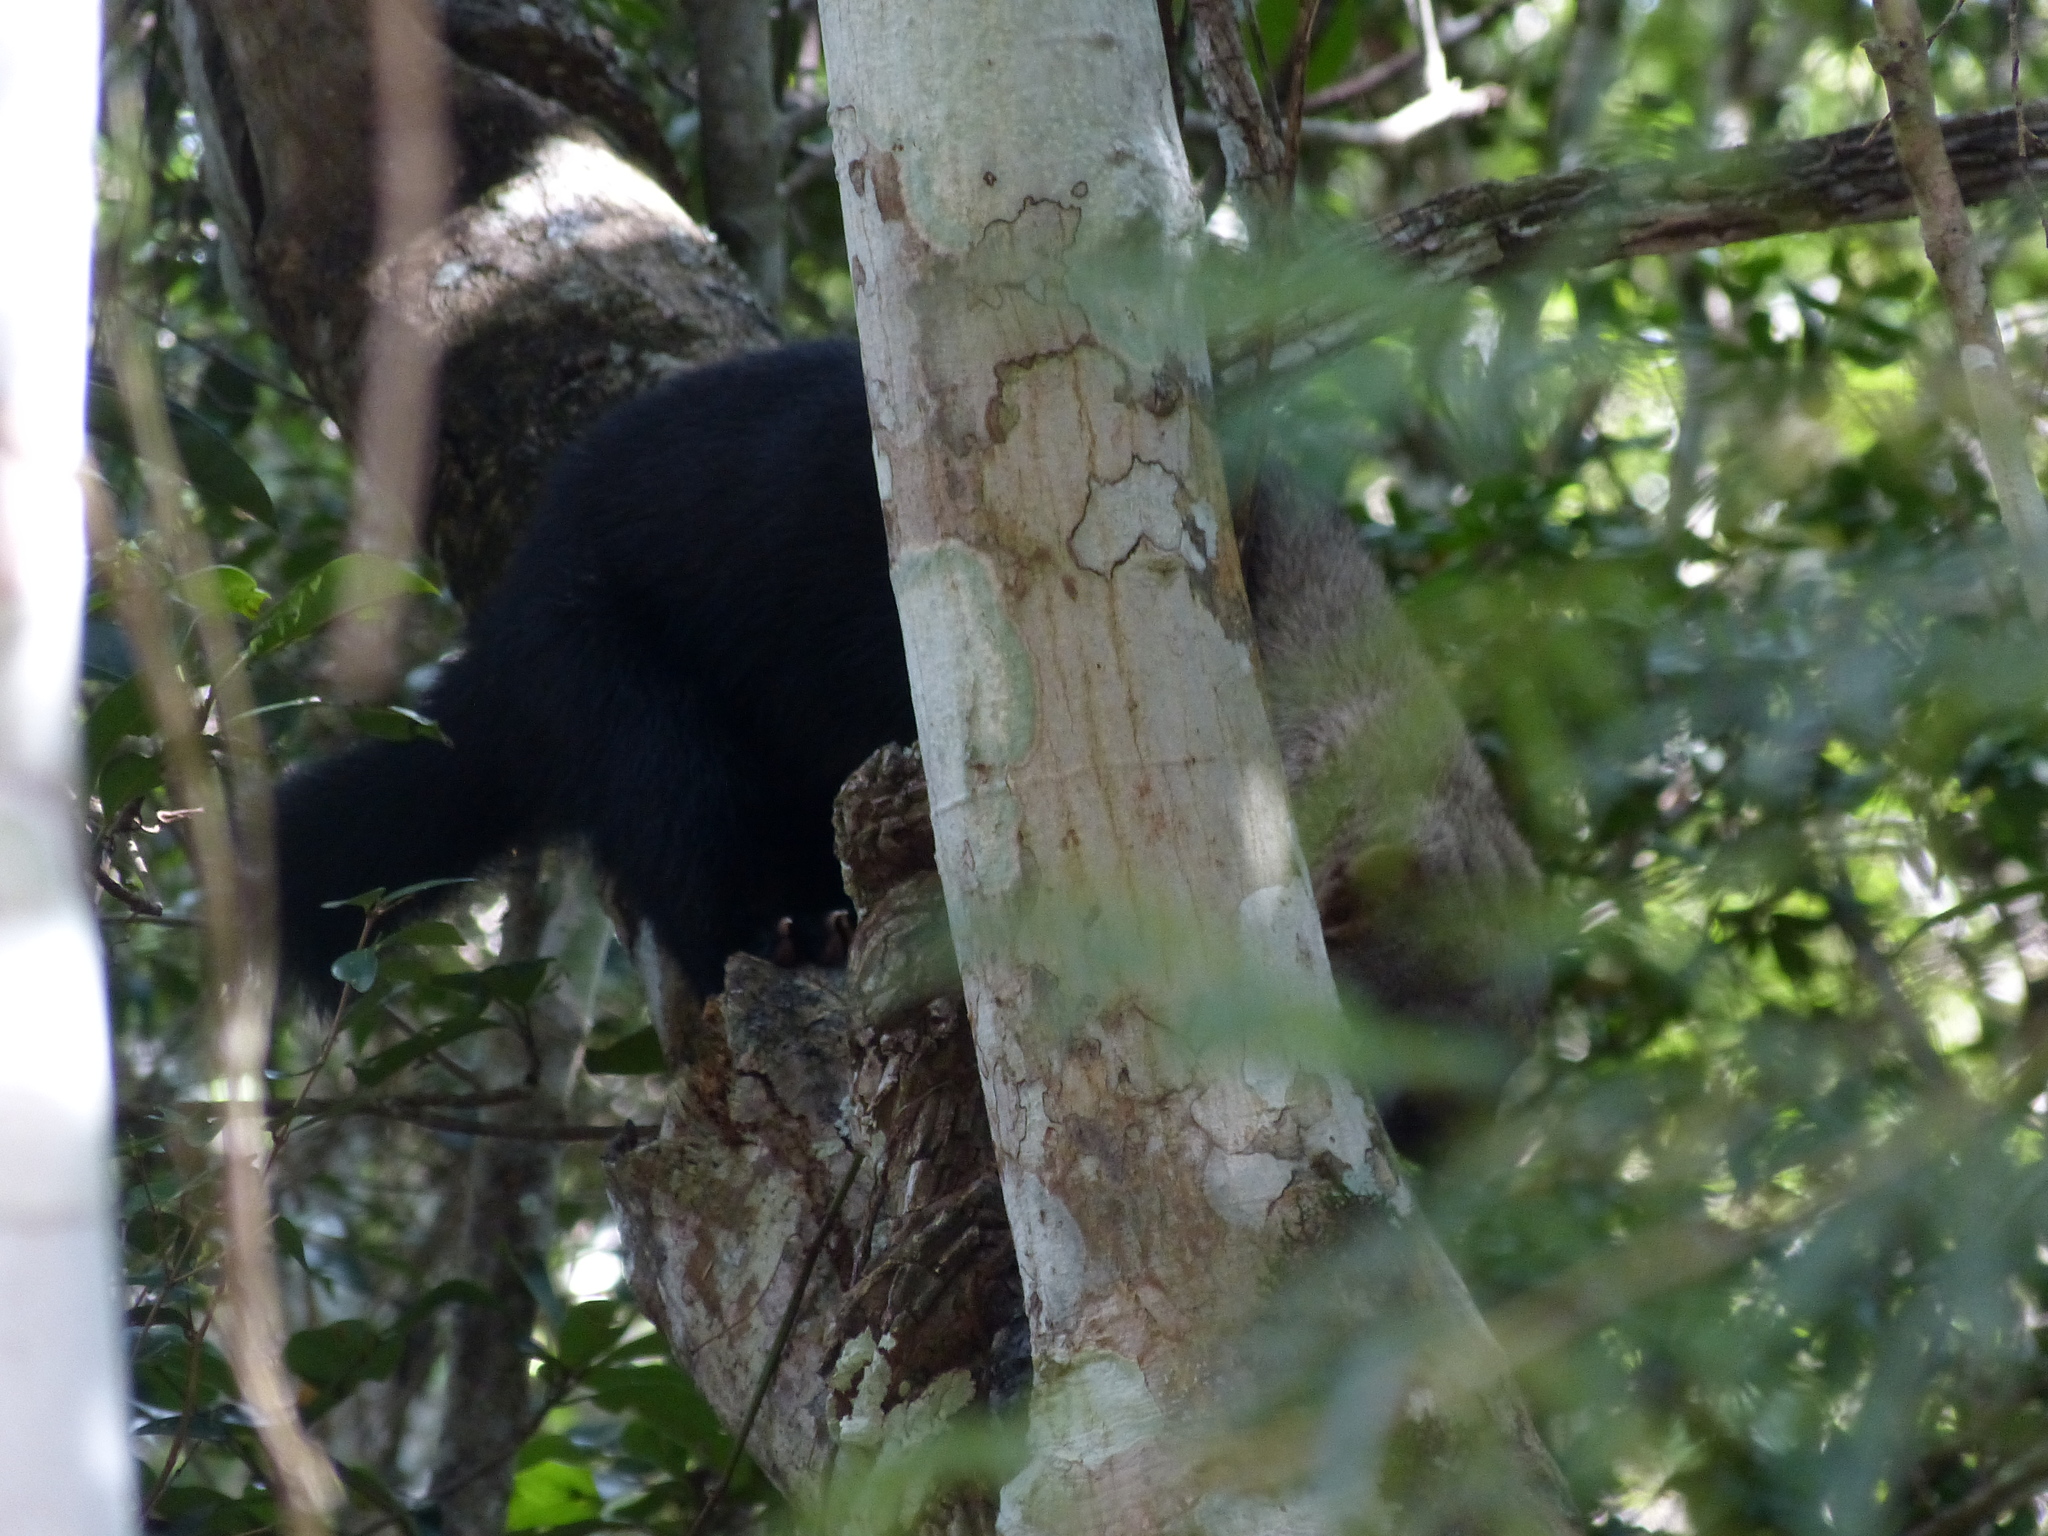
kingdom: Animalia
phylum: Chordata
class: Mammalia
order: Carnivora
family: Mustelidae
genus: Eira
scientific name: Eira barbara
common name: Tayra
